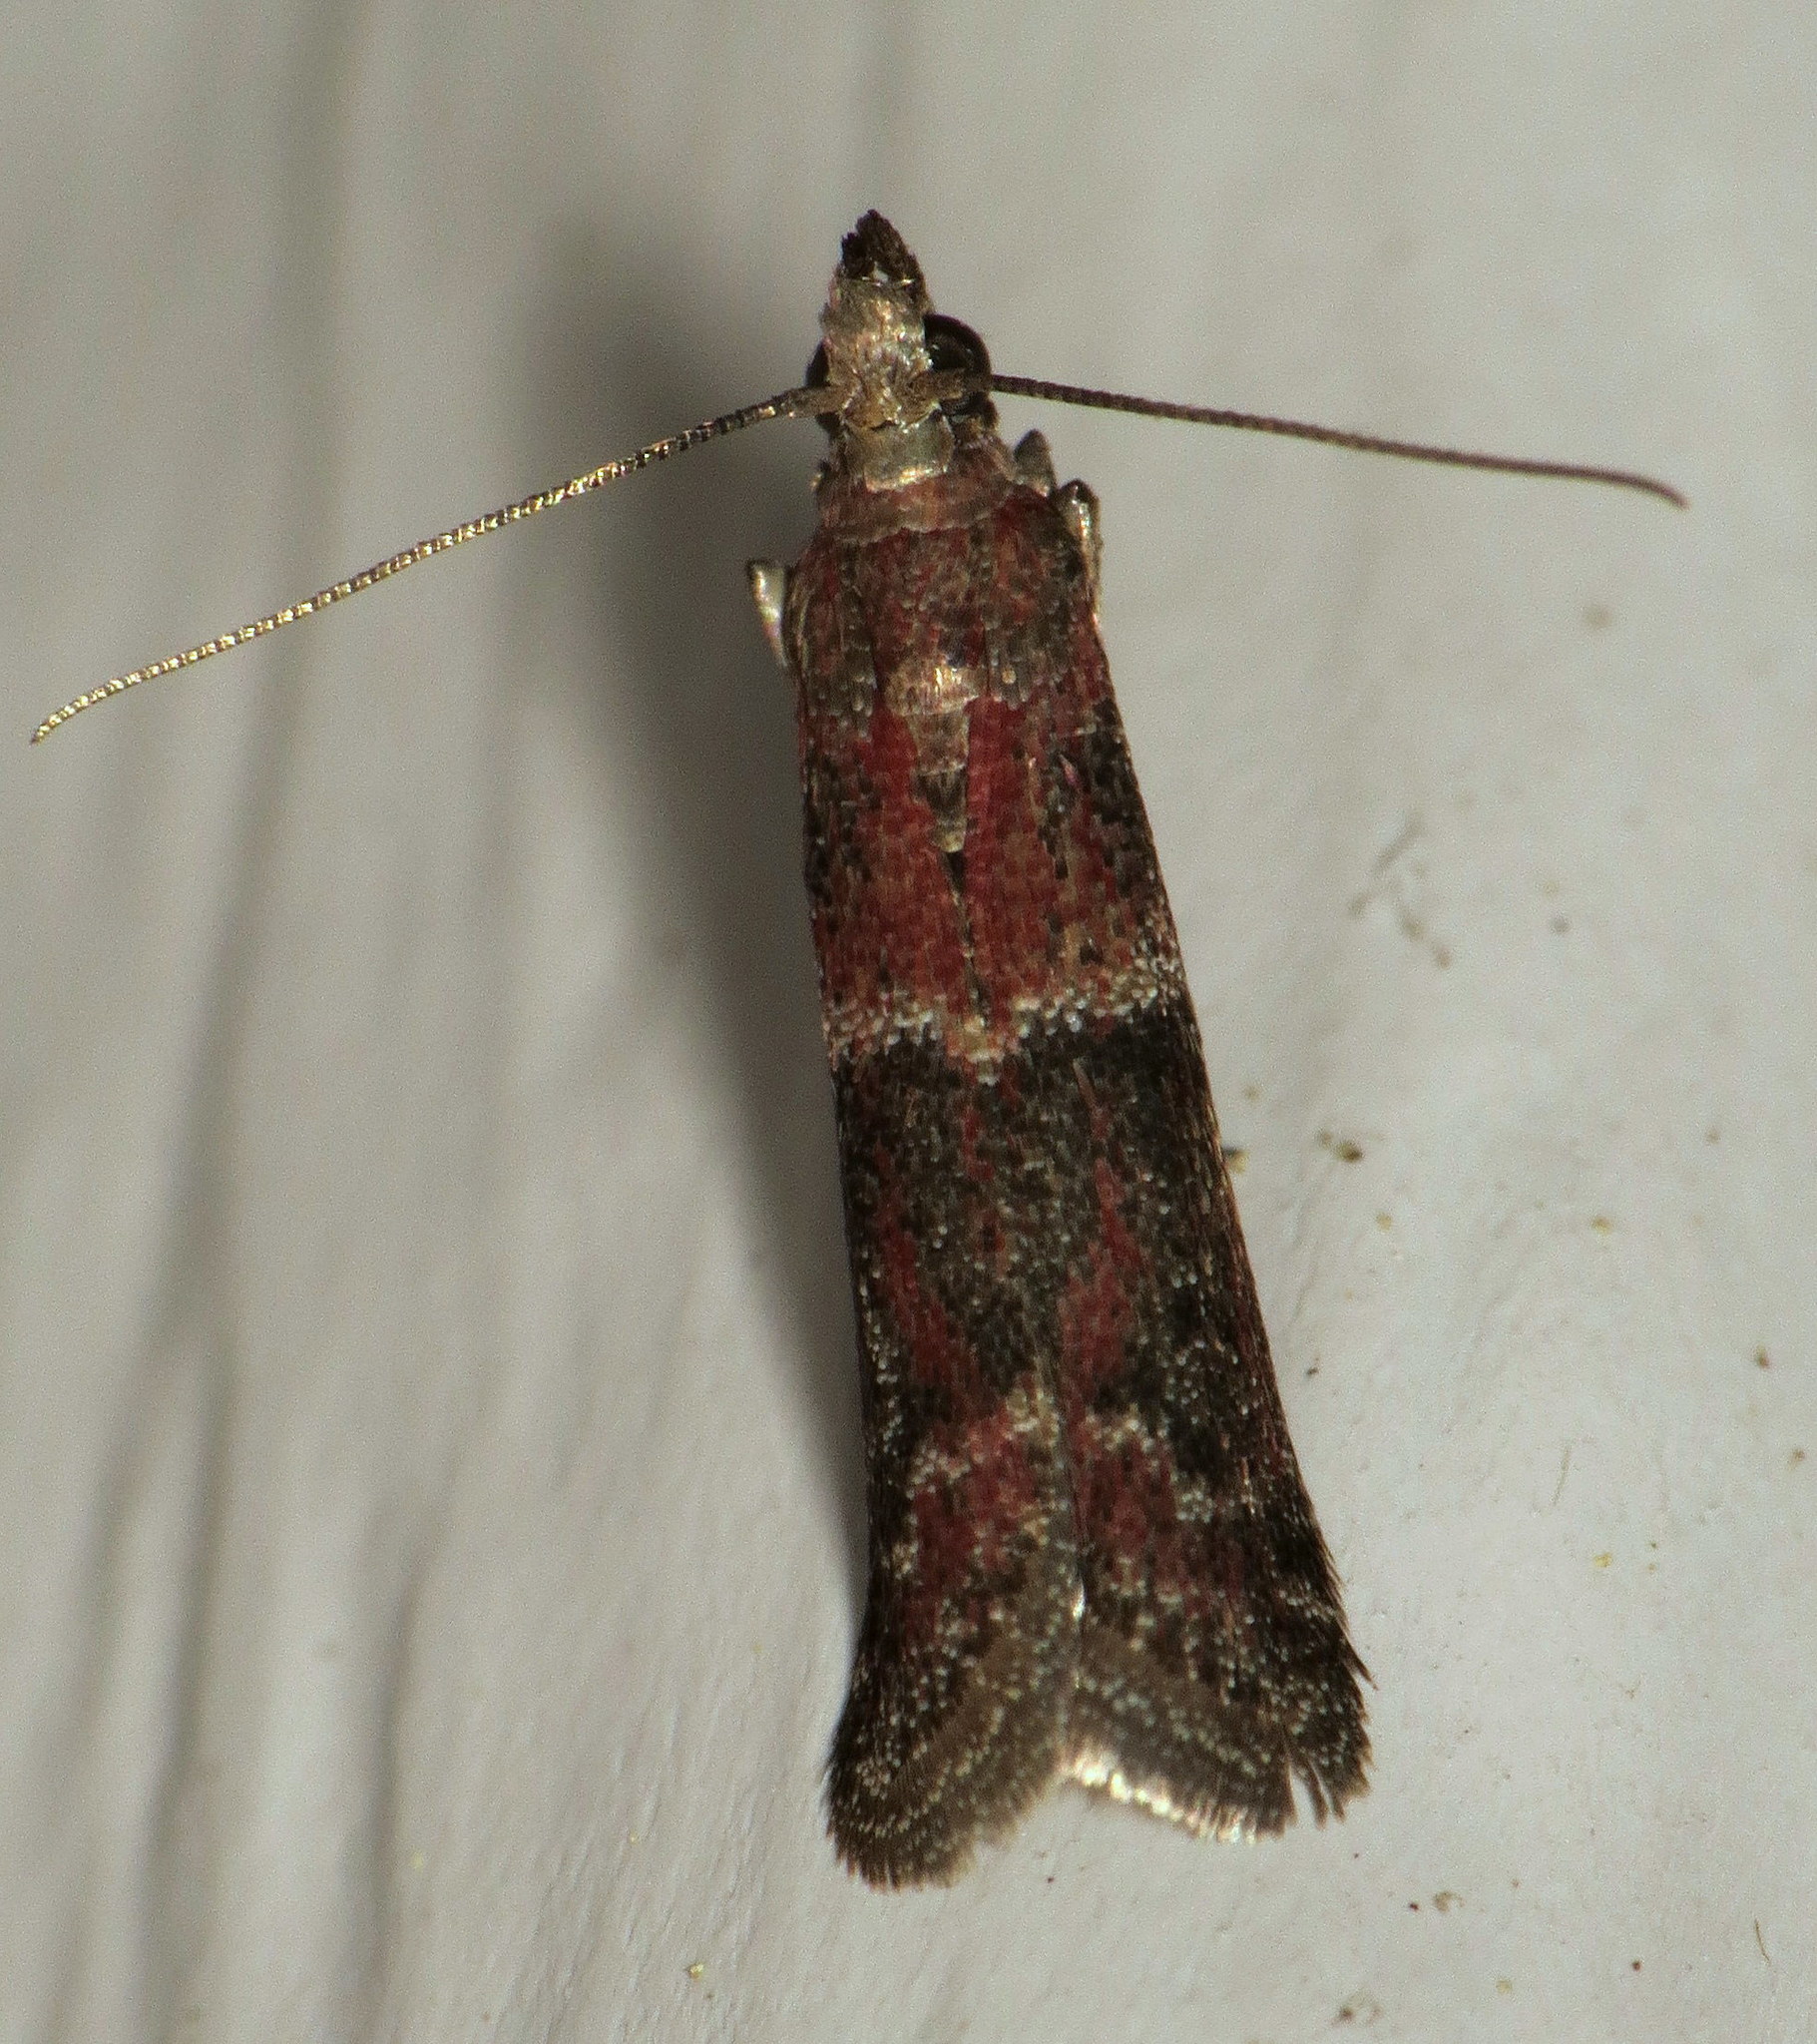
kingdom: Animalia
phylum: Arthropoda
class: Insecta
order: Lepidoptera
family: Pyralidae
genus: Moodna
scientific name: Moodna ostrinella
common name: Darker moodna moth
